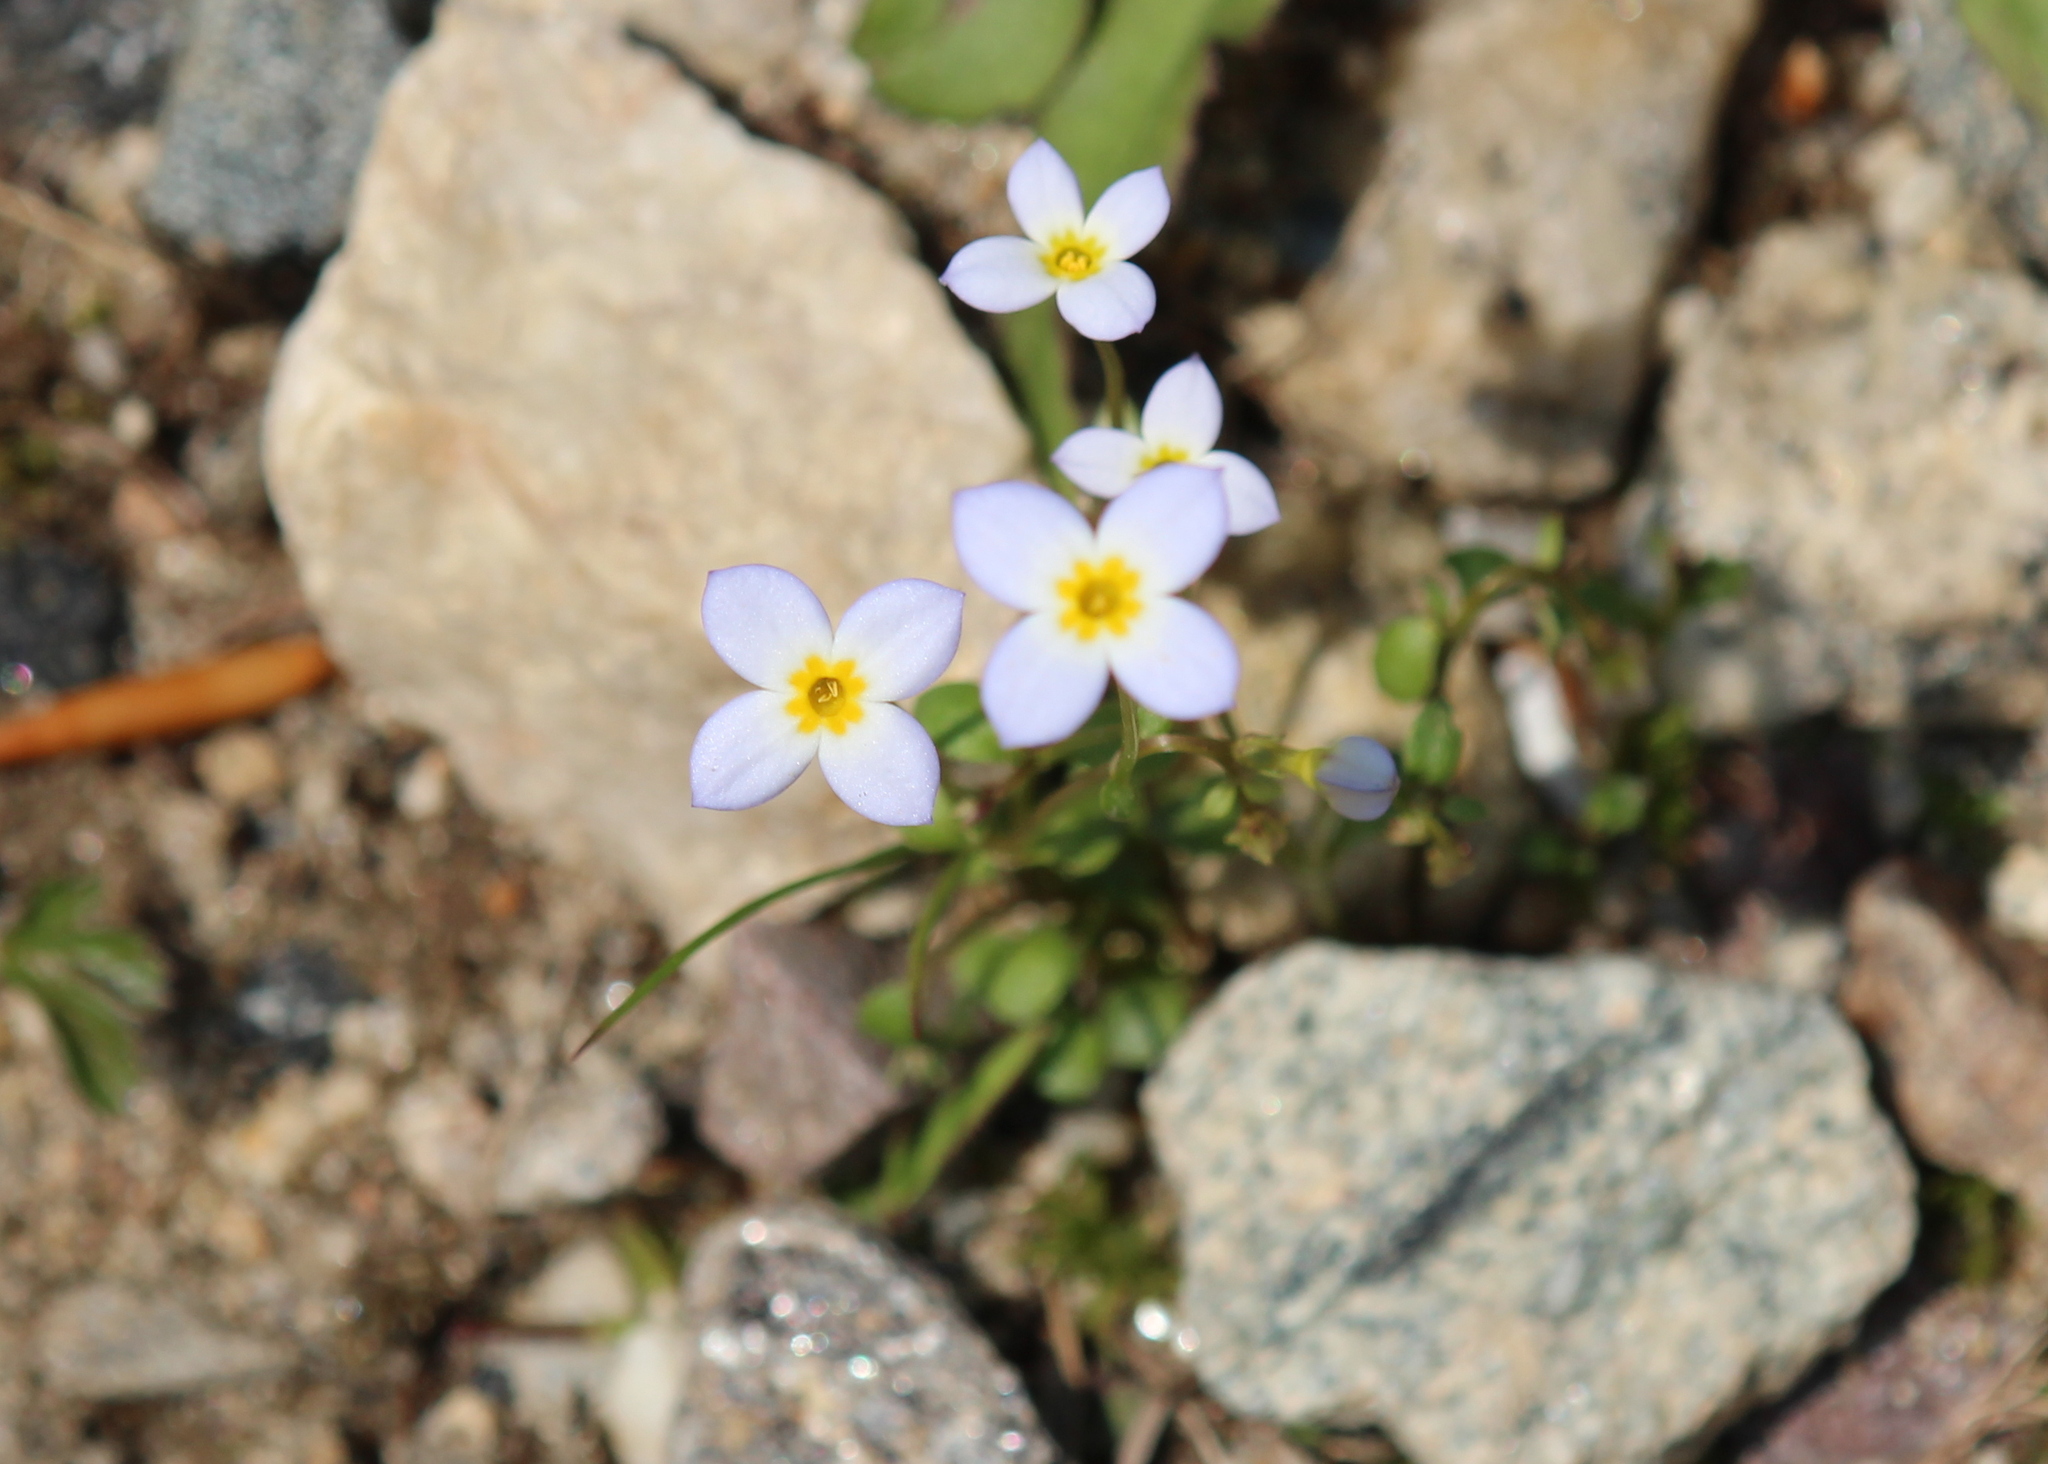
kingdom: Plantae
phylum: Tracheophyta
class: Magnoliopsida
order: Gentianales
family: Rubiaceae
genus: Houstonia
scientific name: Houstonia caerulea
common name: Bluets
